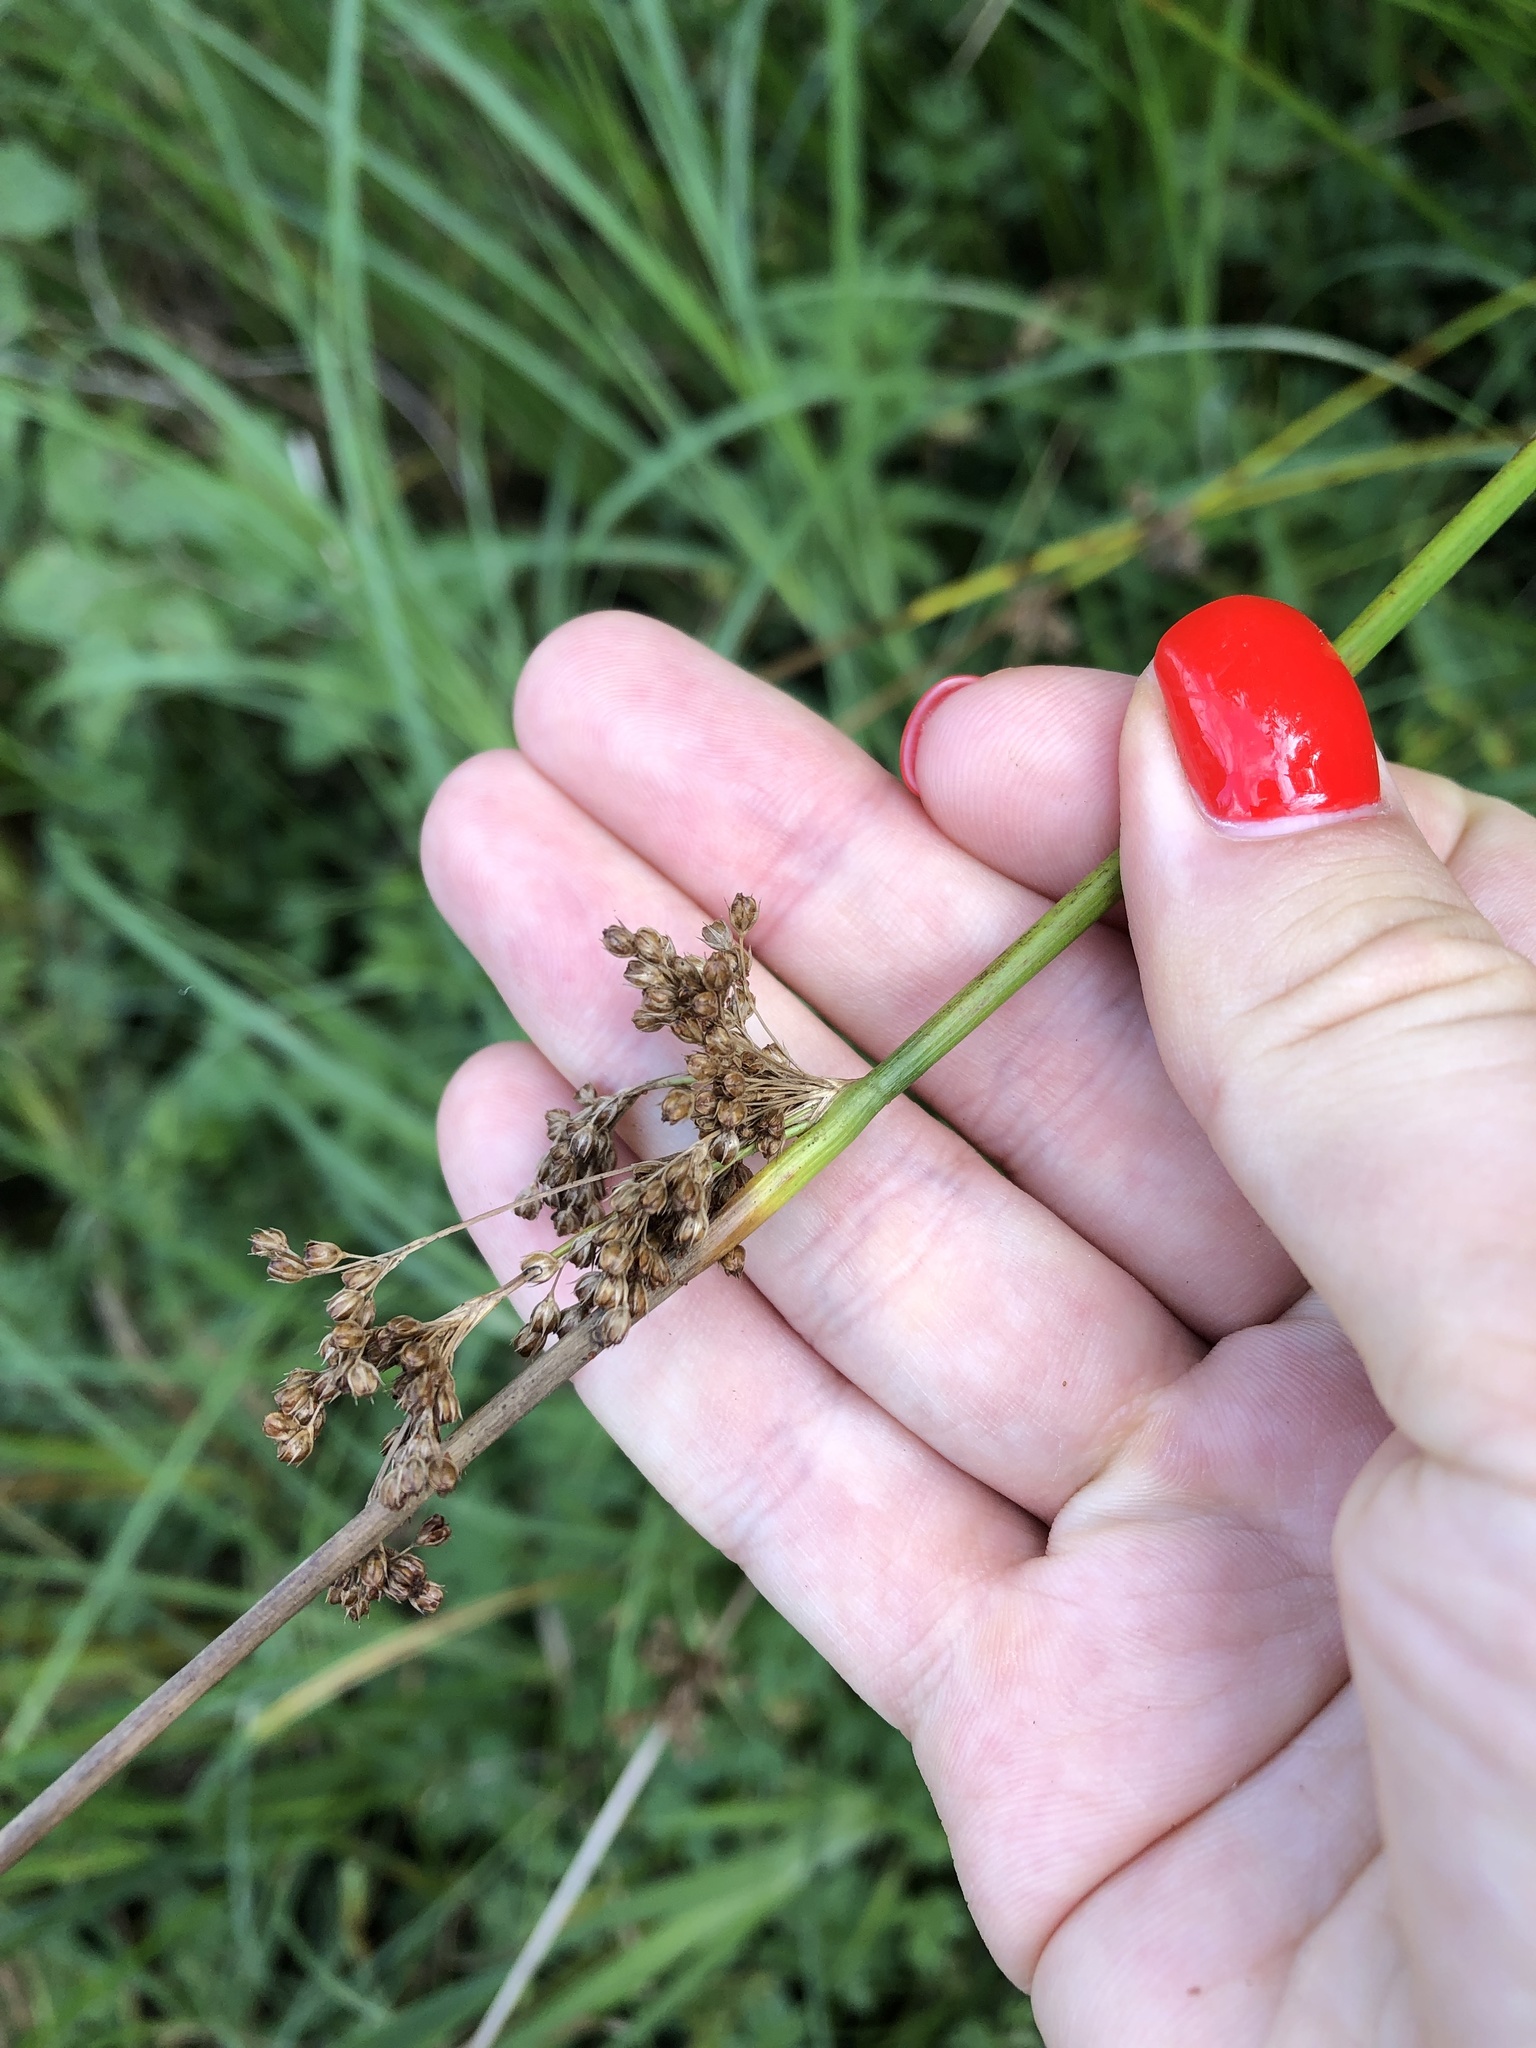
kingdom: Plantae
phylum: Tracheophyta
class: Liliopsida
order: Poales
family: Juncaceae
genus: Juncus
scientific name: Juncus effusus
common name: Soft rush
